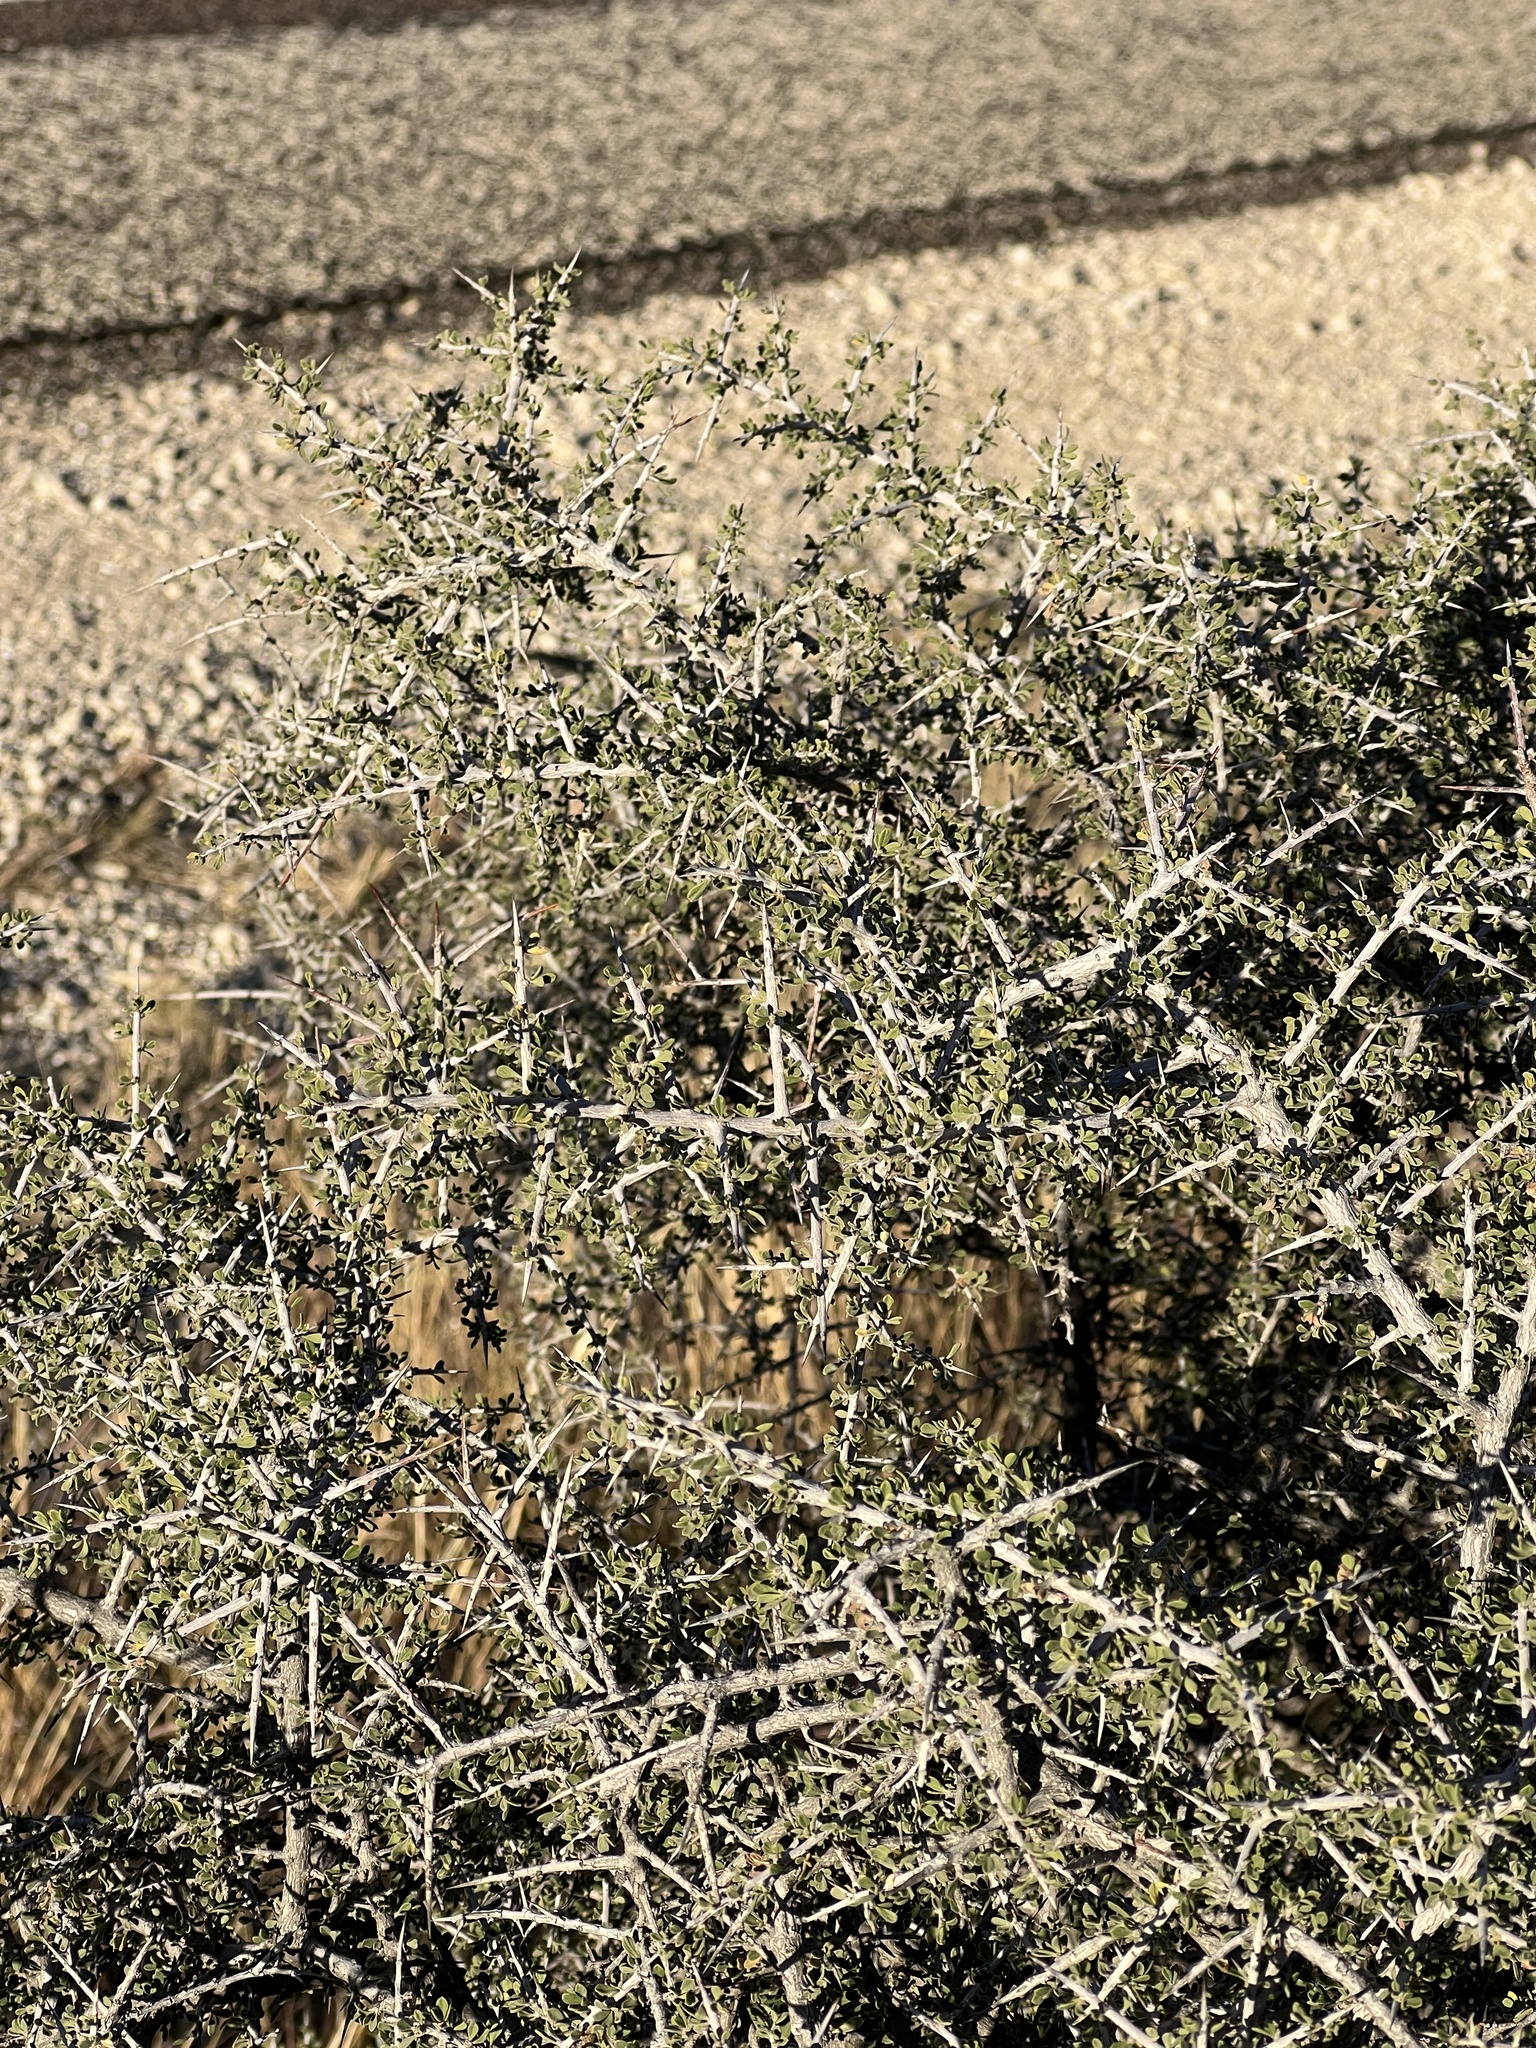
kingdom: Plantae
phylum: Tracheophyta
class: Magnoliopsida
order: Rosales
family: Rhamnaceae
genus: Condalia
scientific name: Condalia viridis
